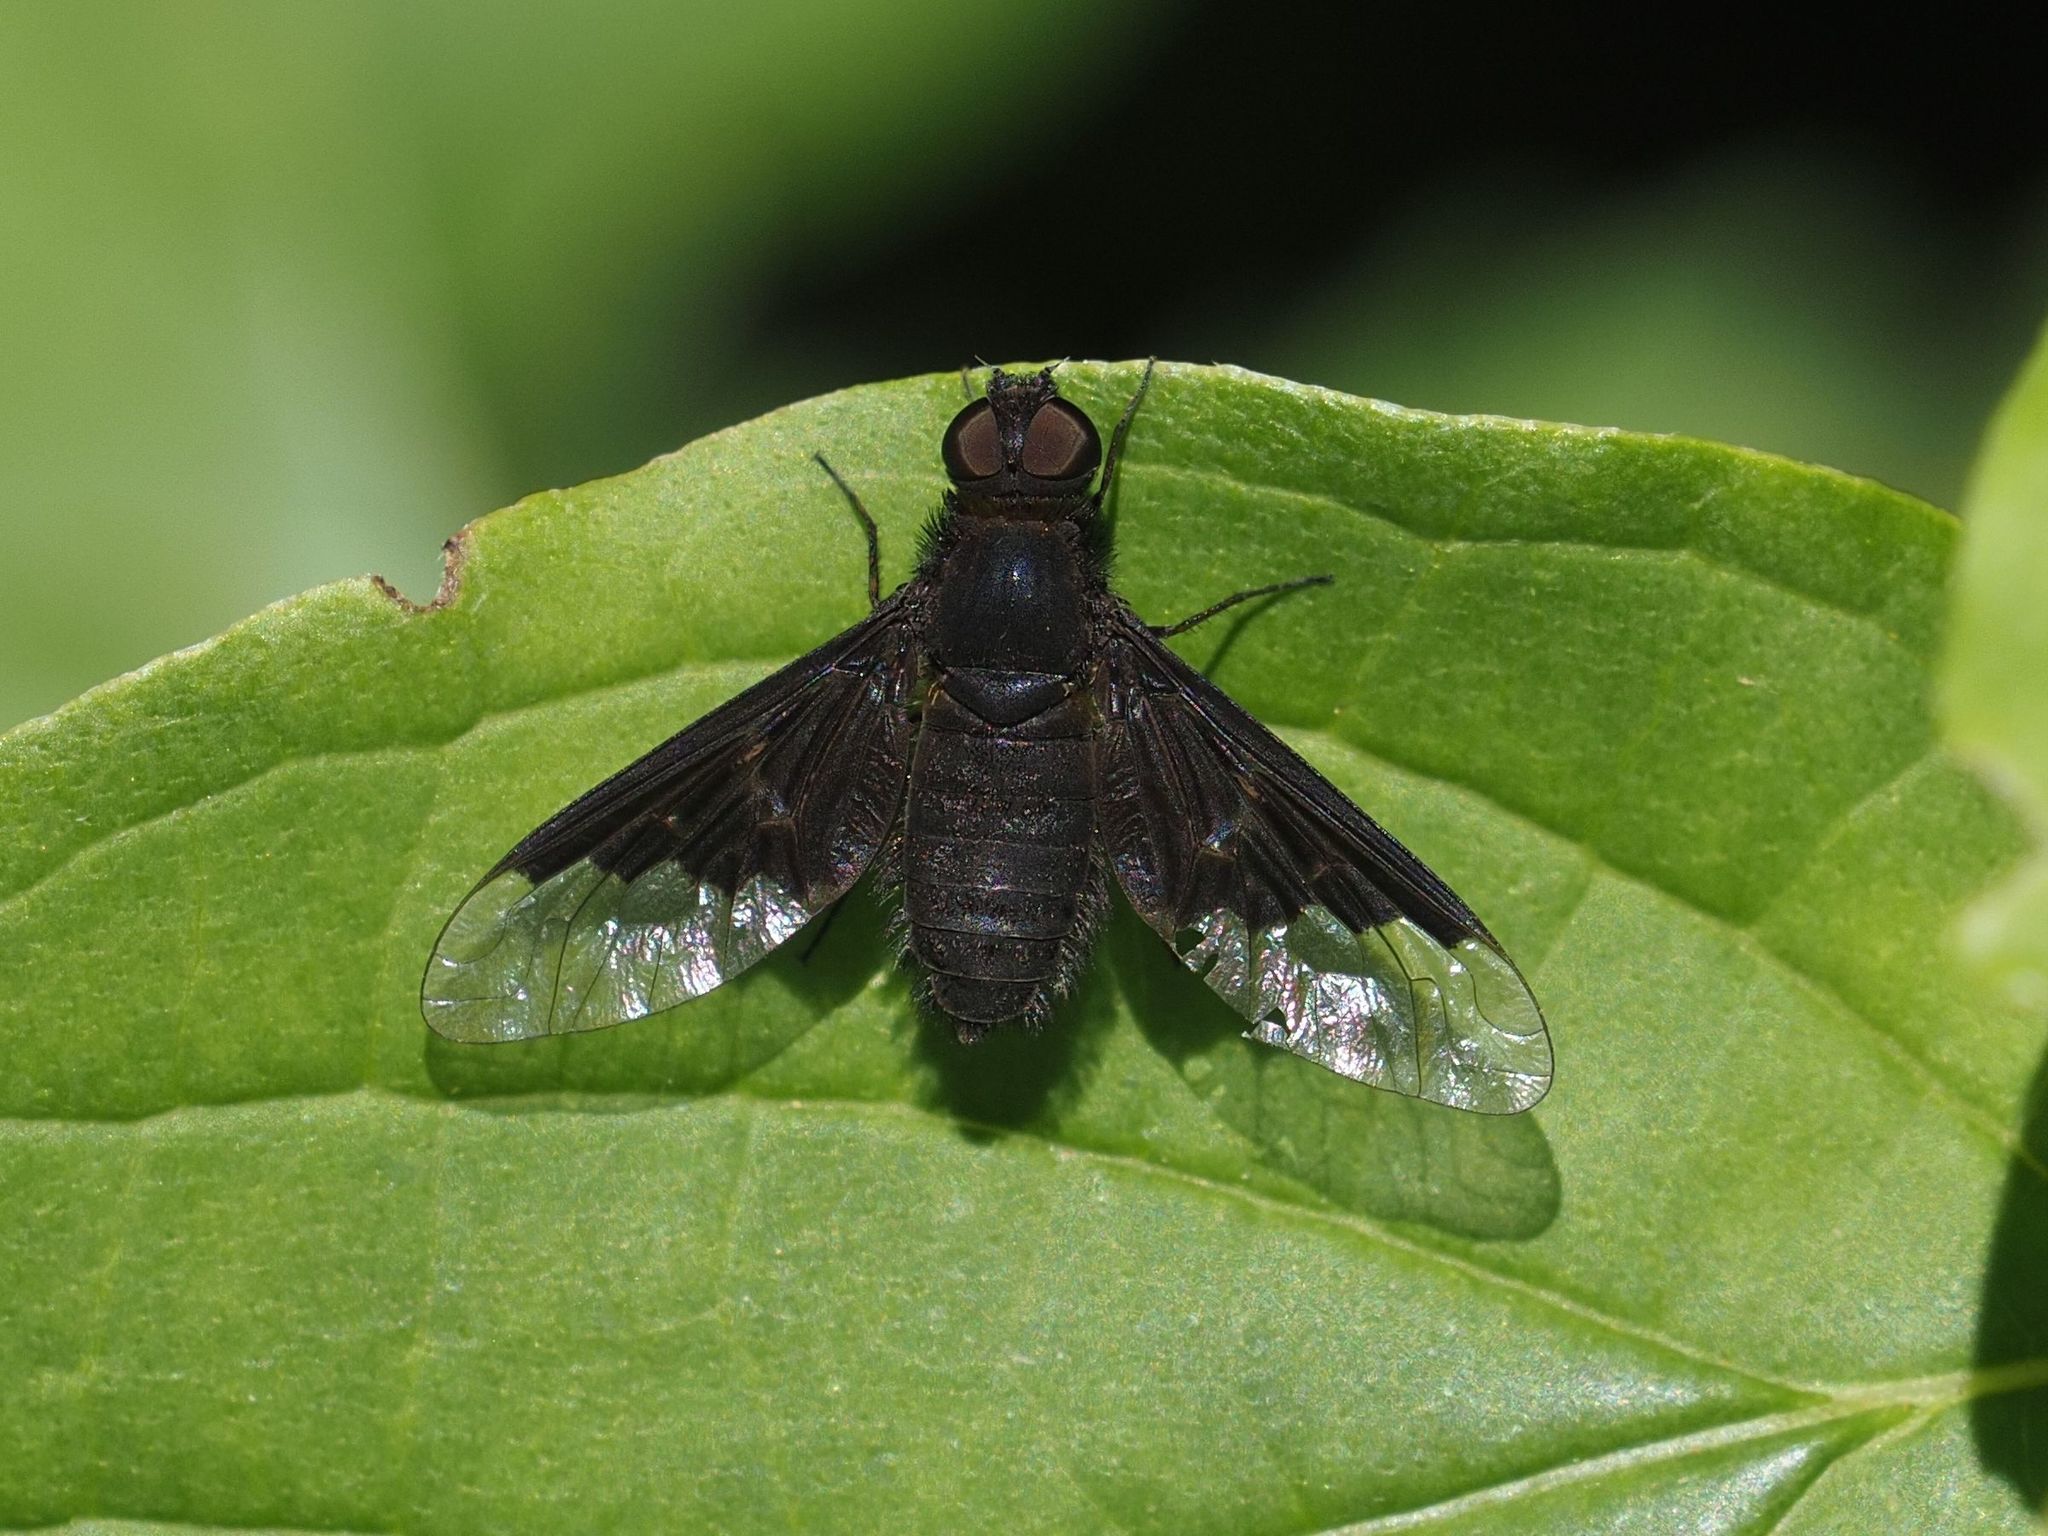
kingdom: Animalia
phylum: Arthropoda
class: Insecta
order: Diptera
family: Bombyliidae
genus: Hemipenthes
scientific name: Hemipenthes morio
